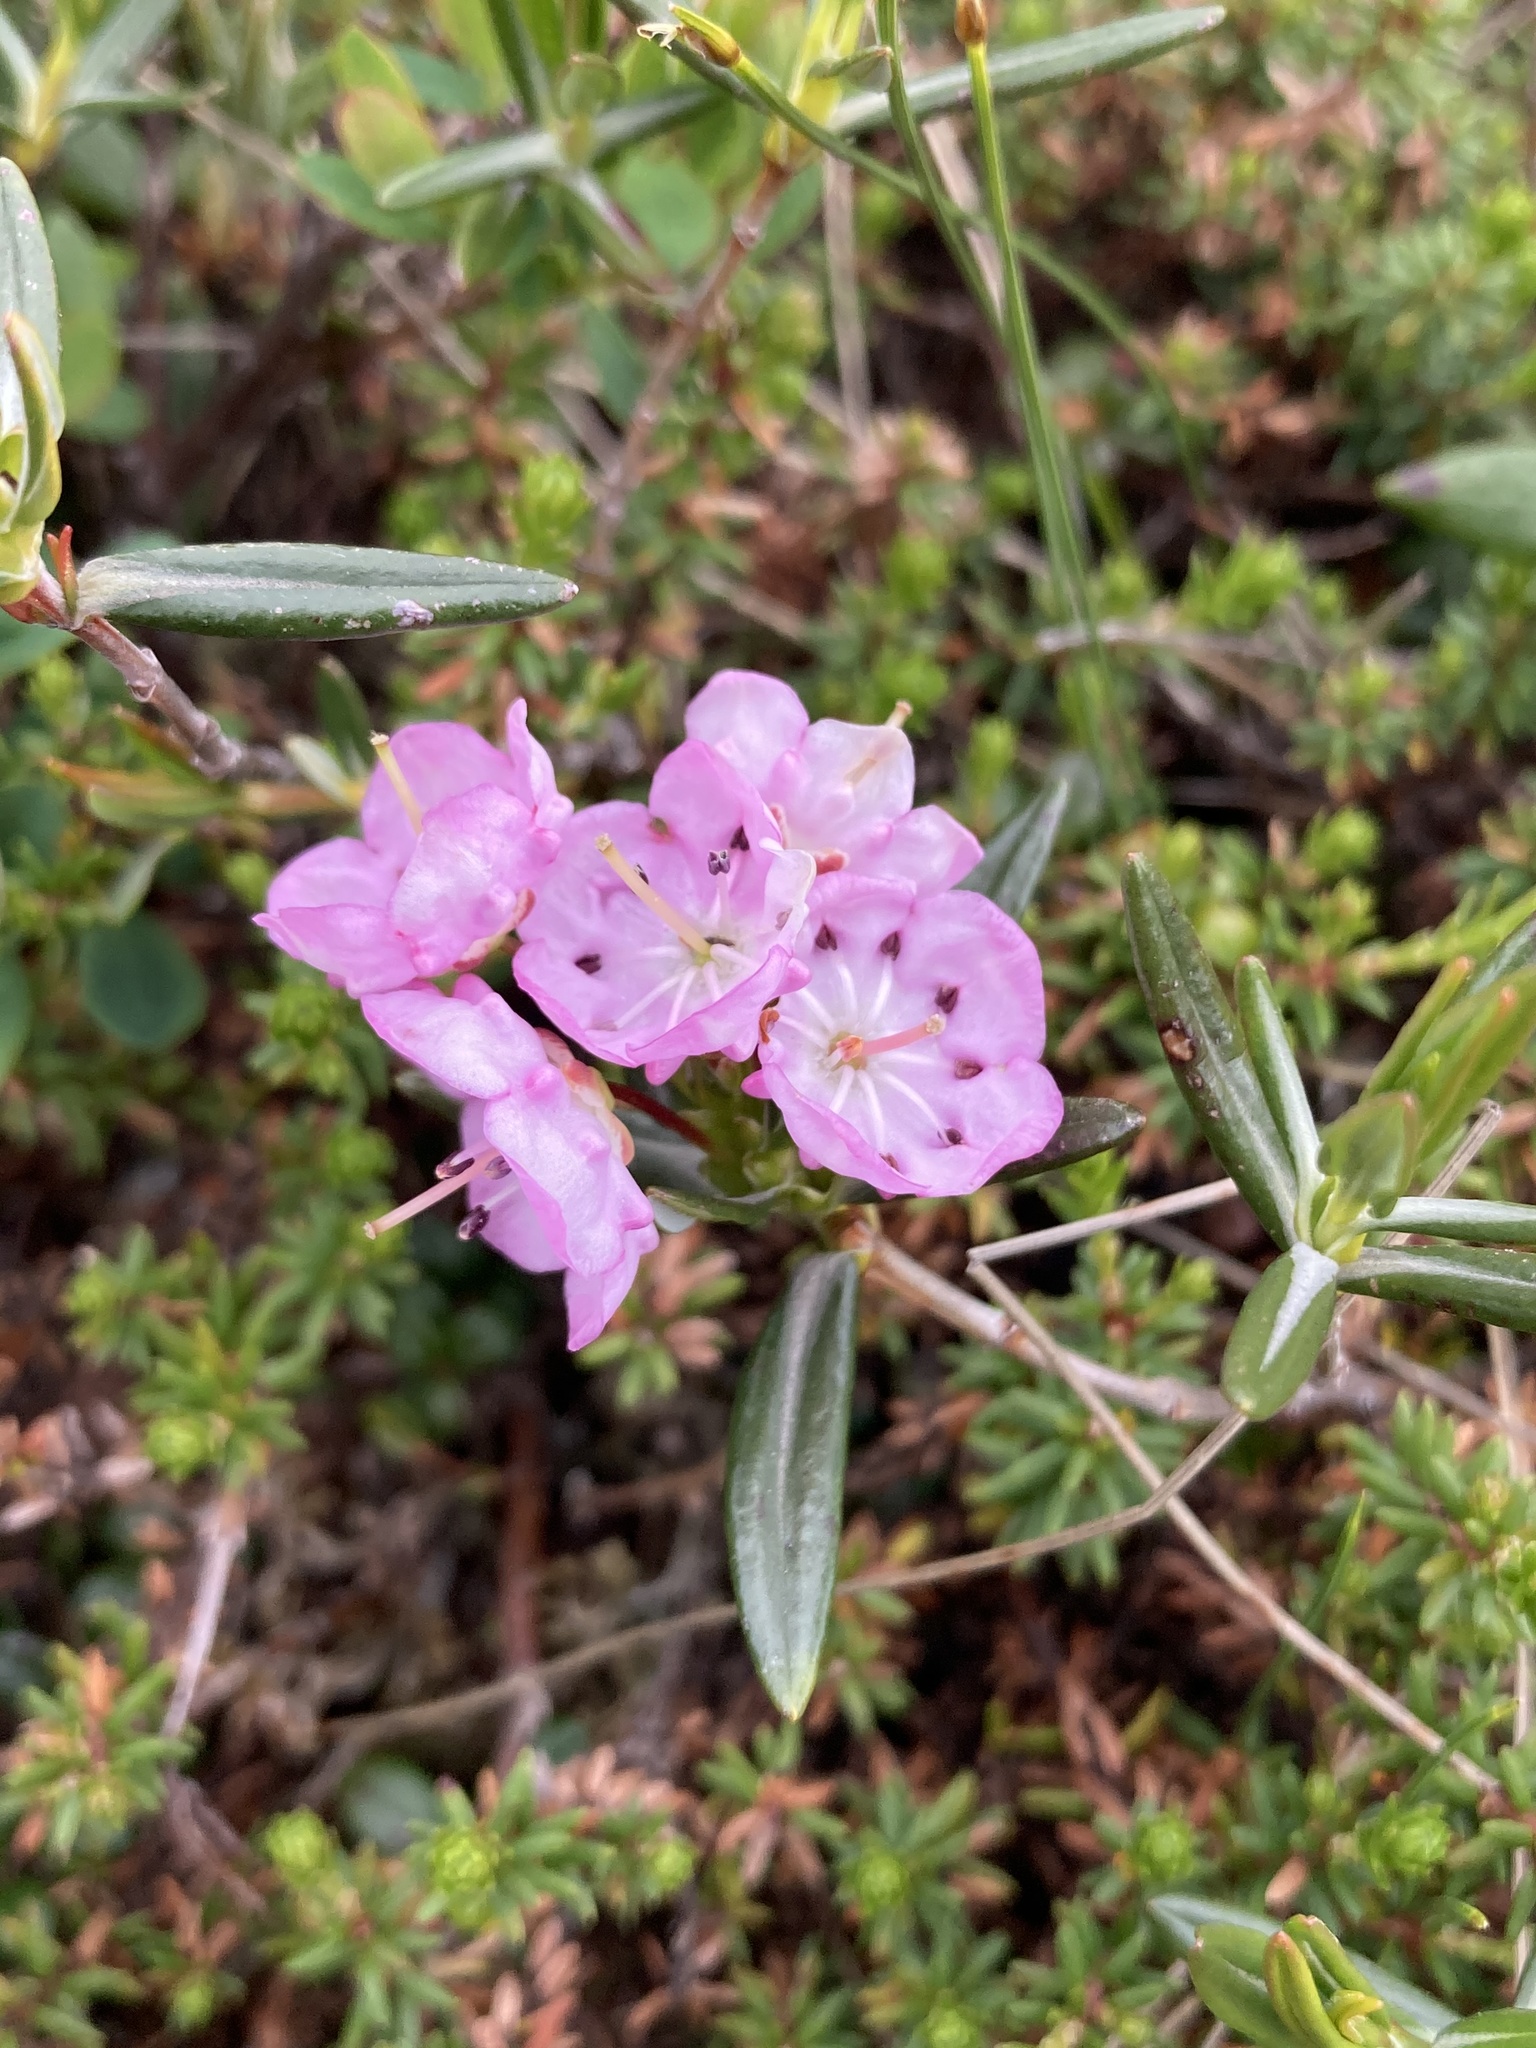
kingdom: Plantae
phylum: Tracheophyta
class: Magnoliopsida
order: Ericales
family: Ericaceae
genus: Kalmia
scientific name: Kalmia polifolia
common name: Bog-laurel
